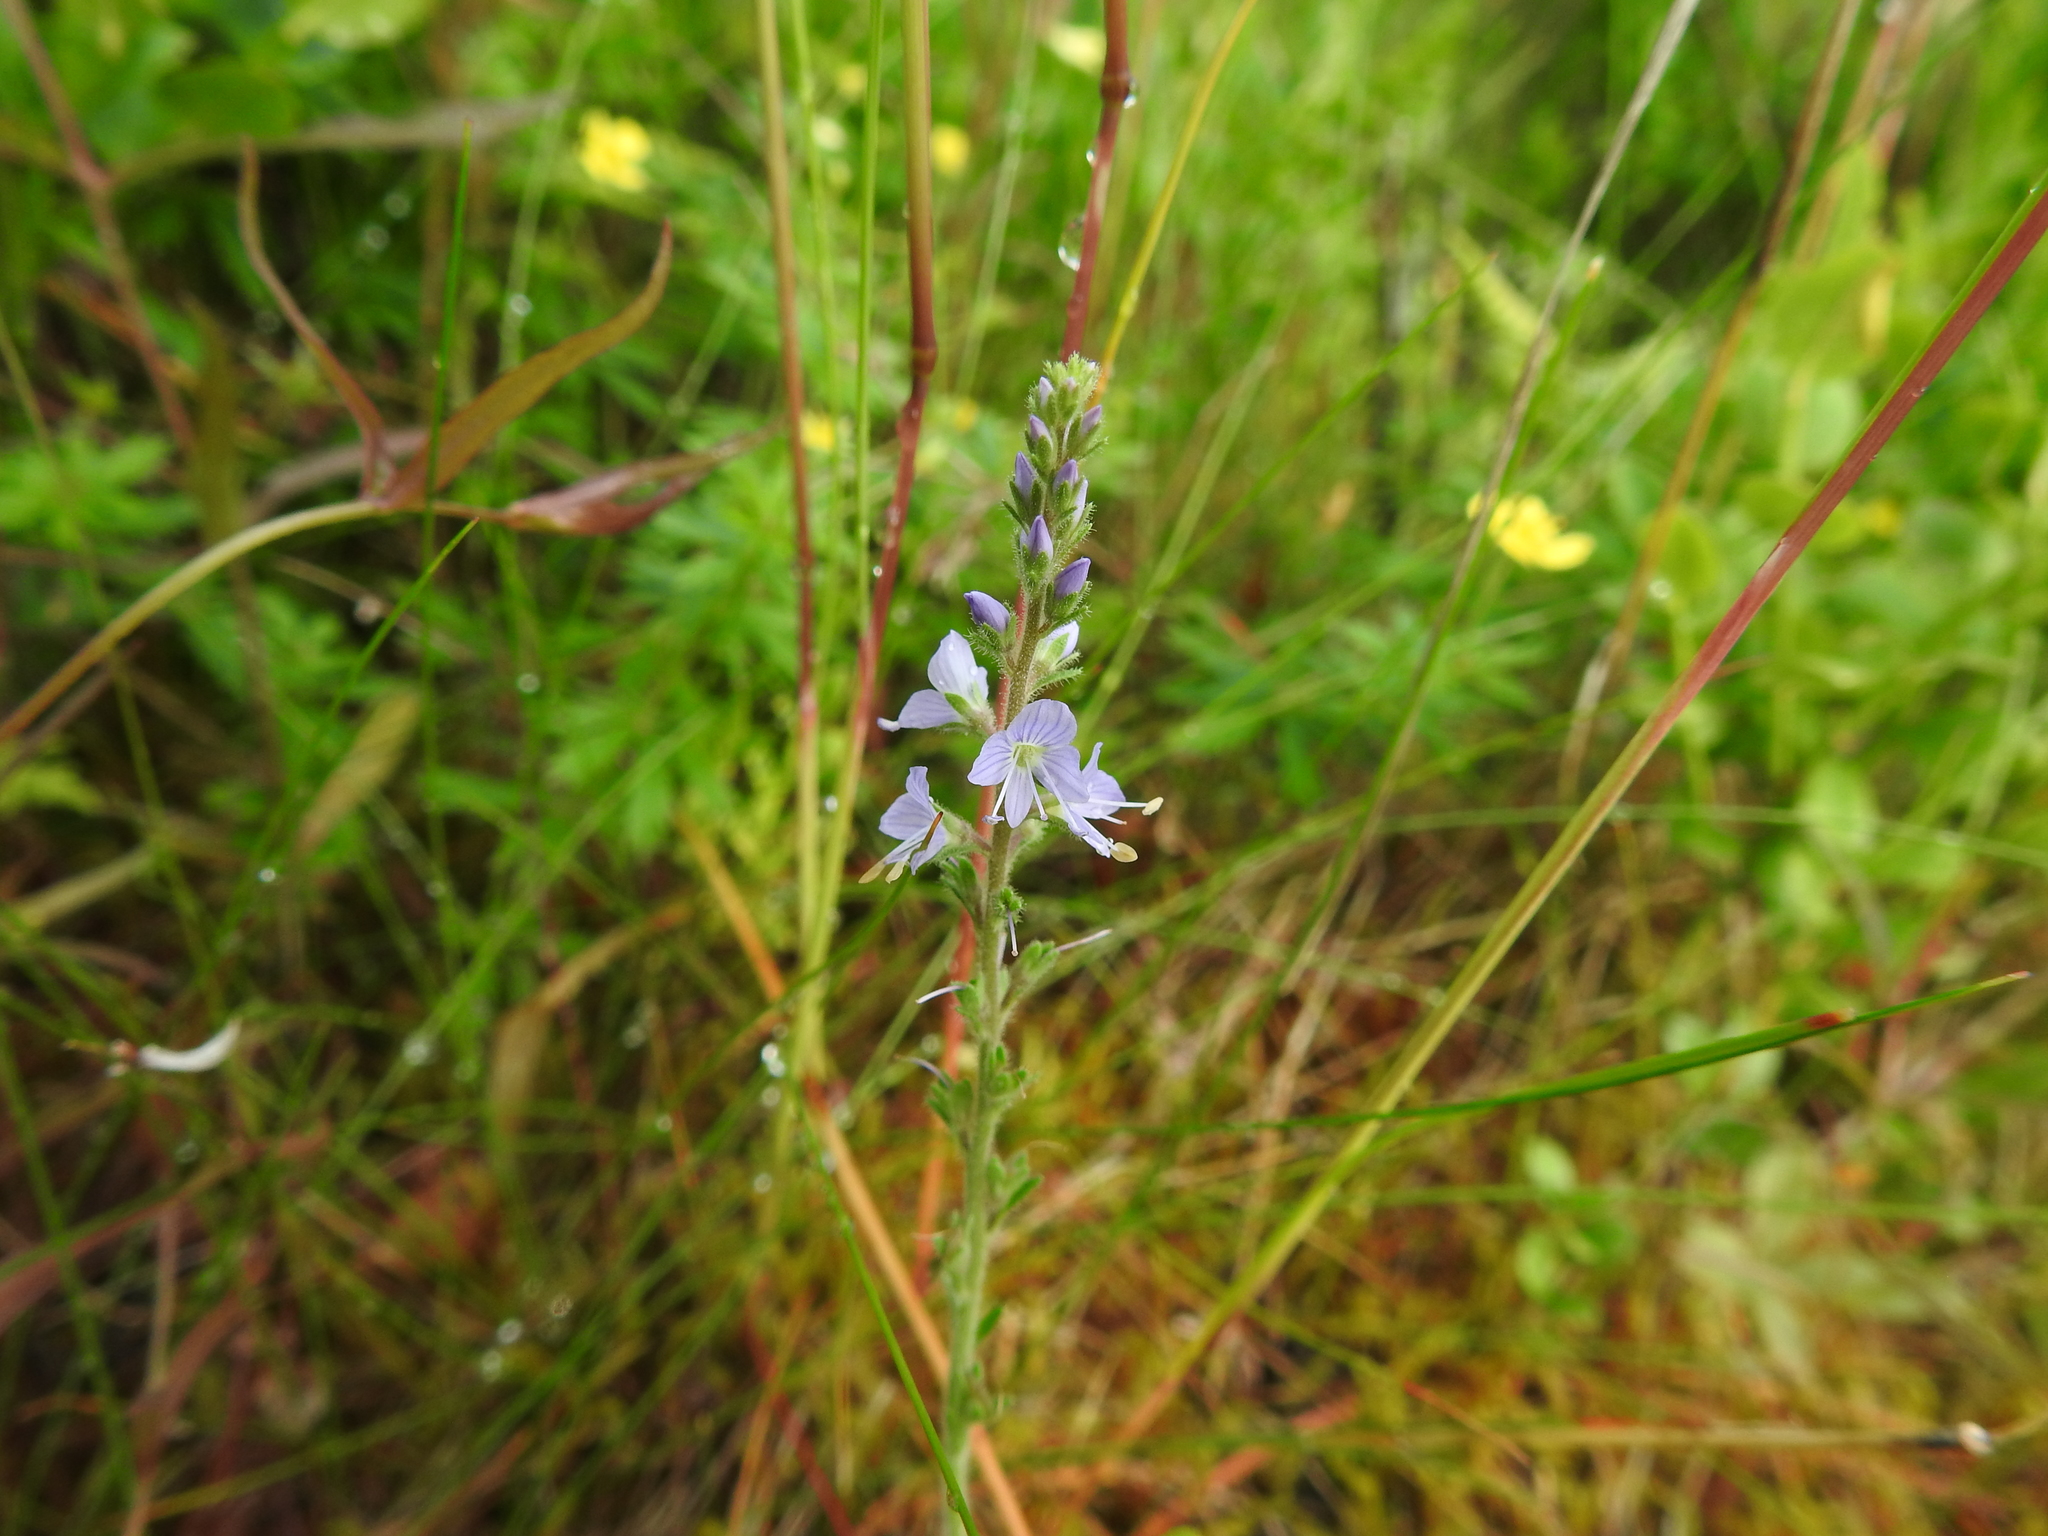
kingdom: Plantae
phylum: Tracheophyta
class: Magnoliopsida
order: Lamiales
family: Plantaginaceae
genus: Veronica
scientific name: Veronica officinalis
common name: Common speedwell
